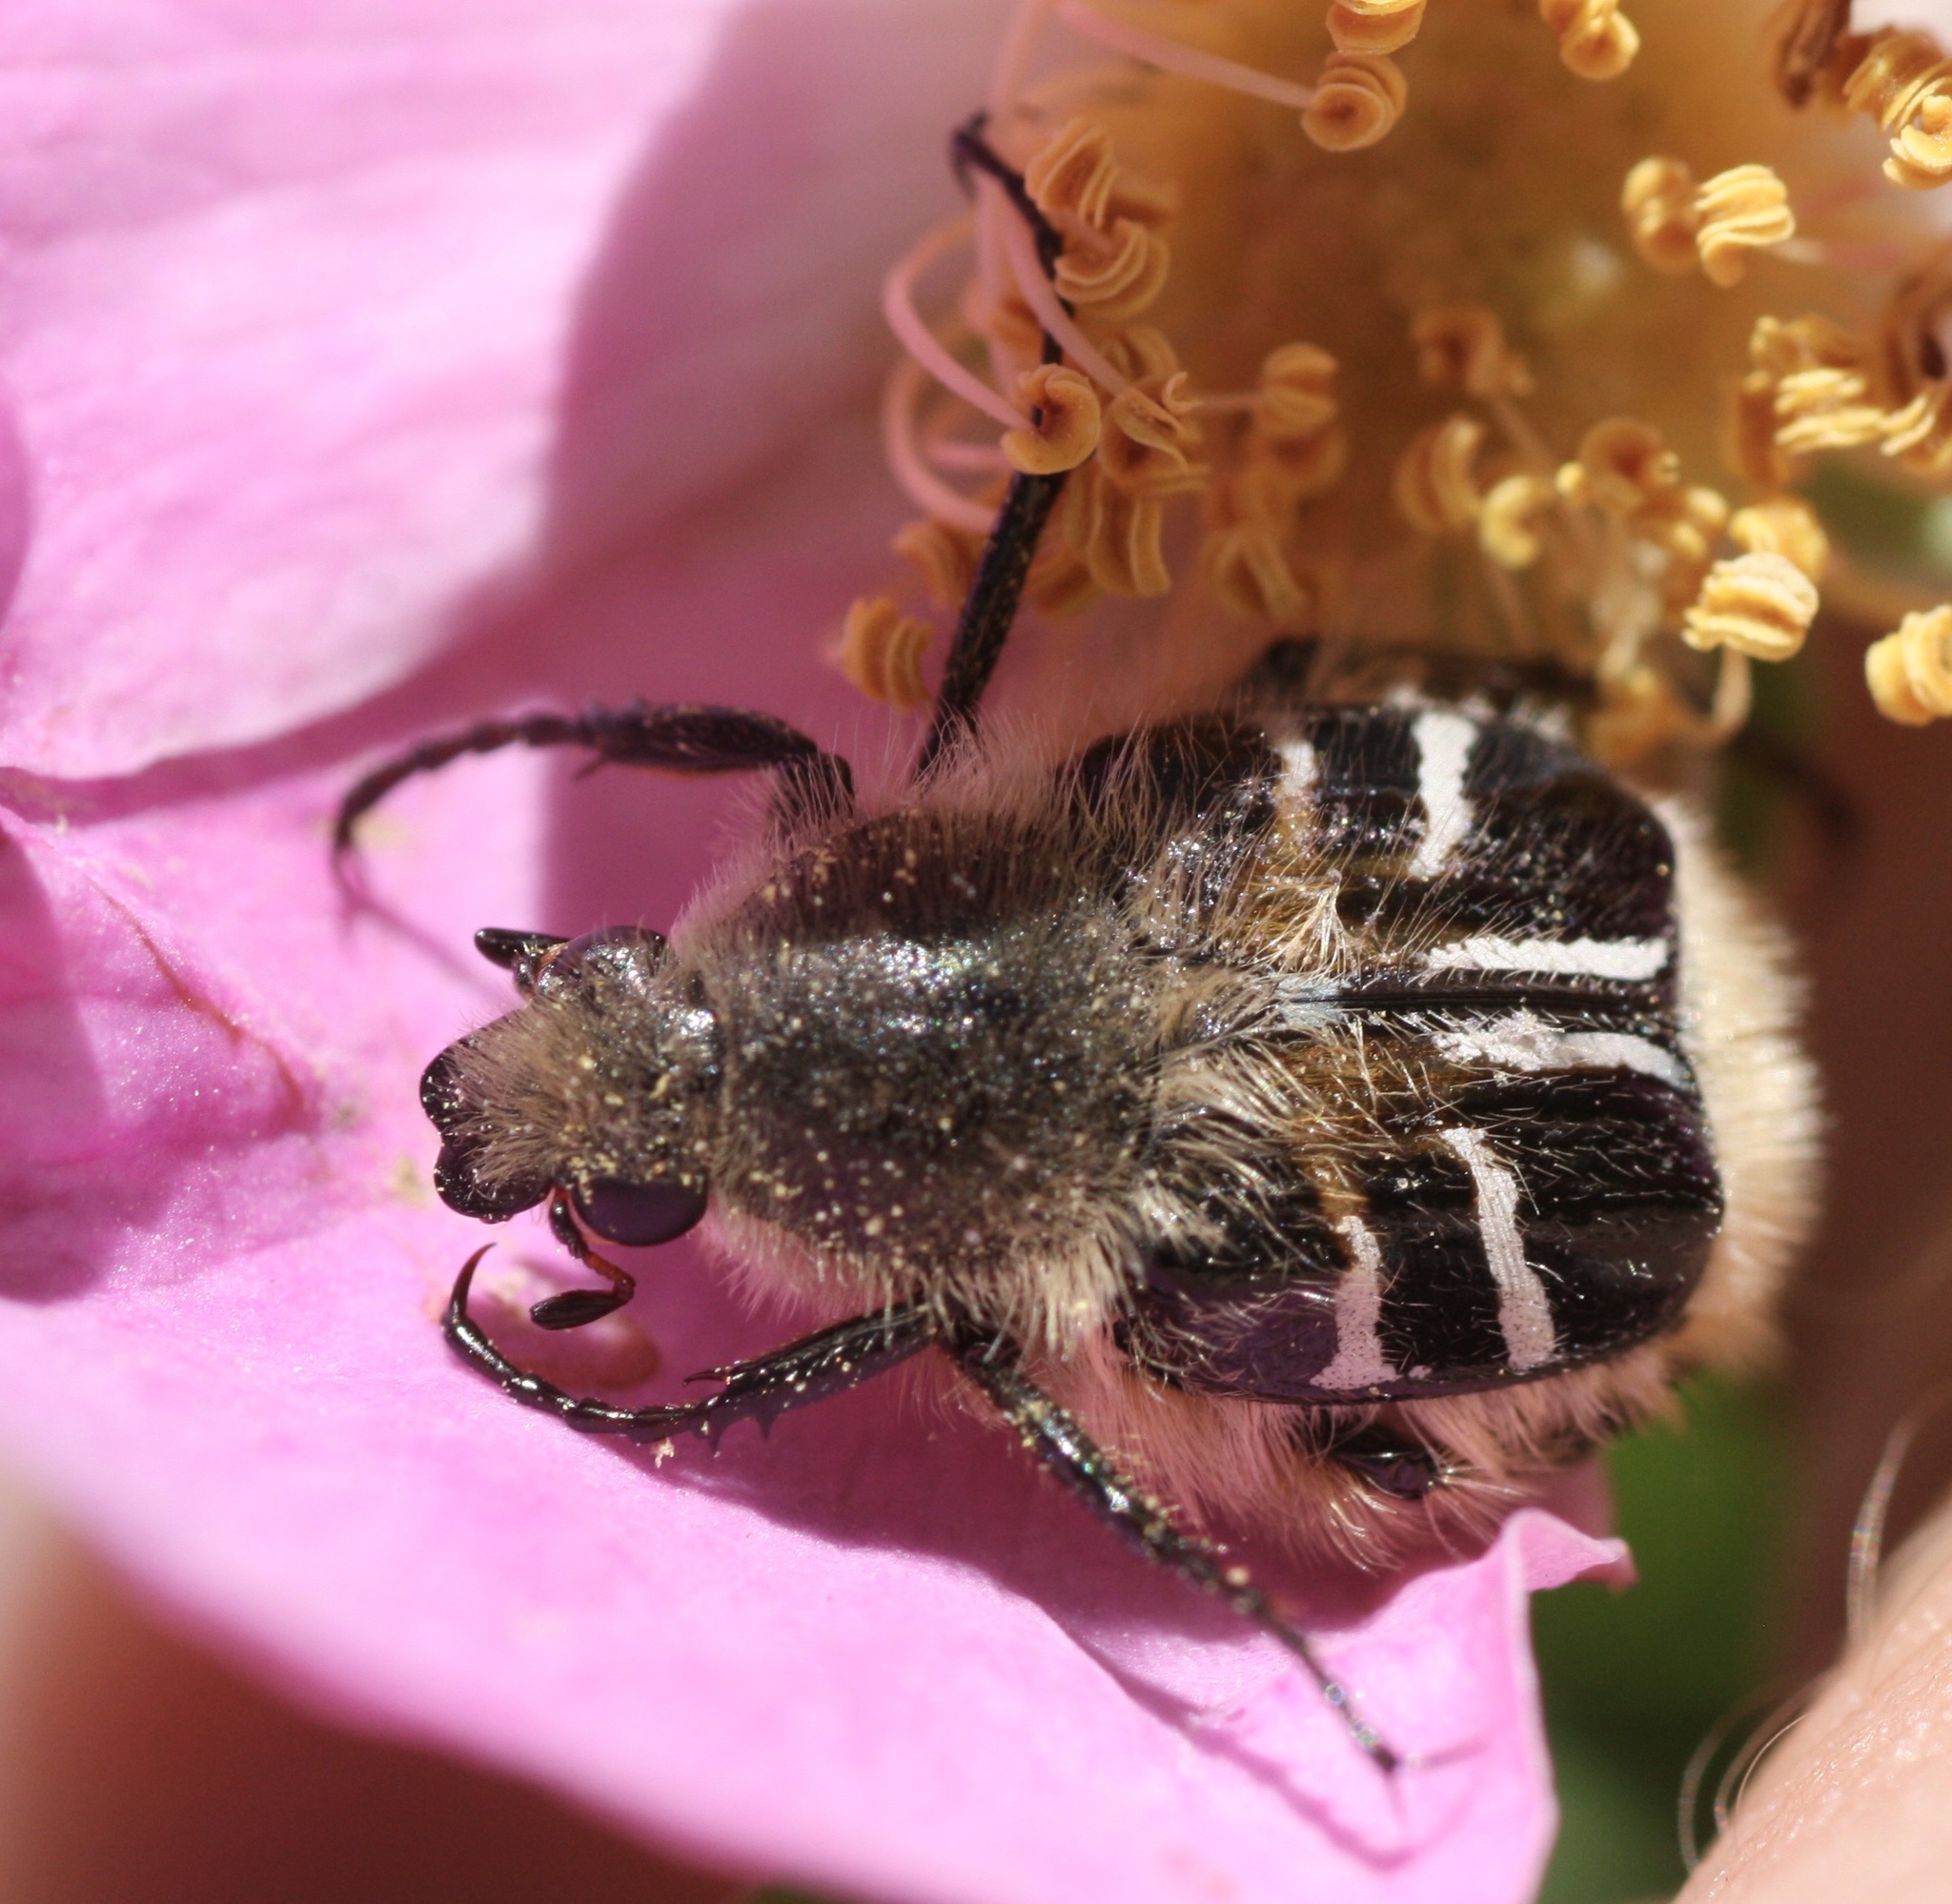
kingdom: Animalia
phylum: Arthropoda
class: Insecta
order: Coleoptera
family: Scarabaeidae
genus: Trichiotinus
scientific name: Trichiotinus assimilis
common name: Bee-mimic beetle
